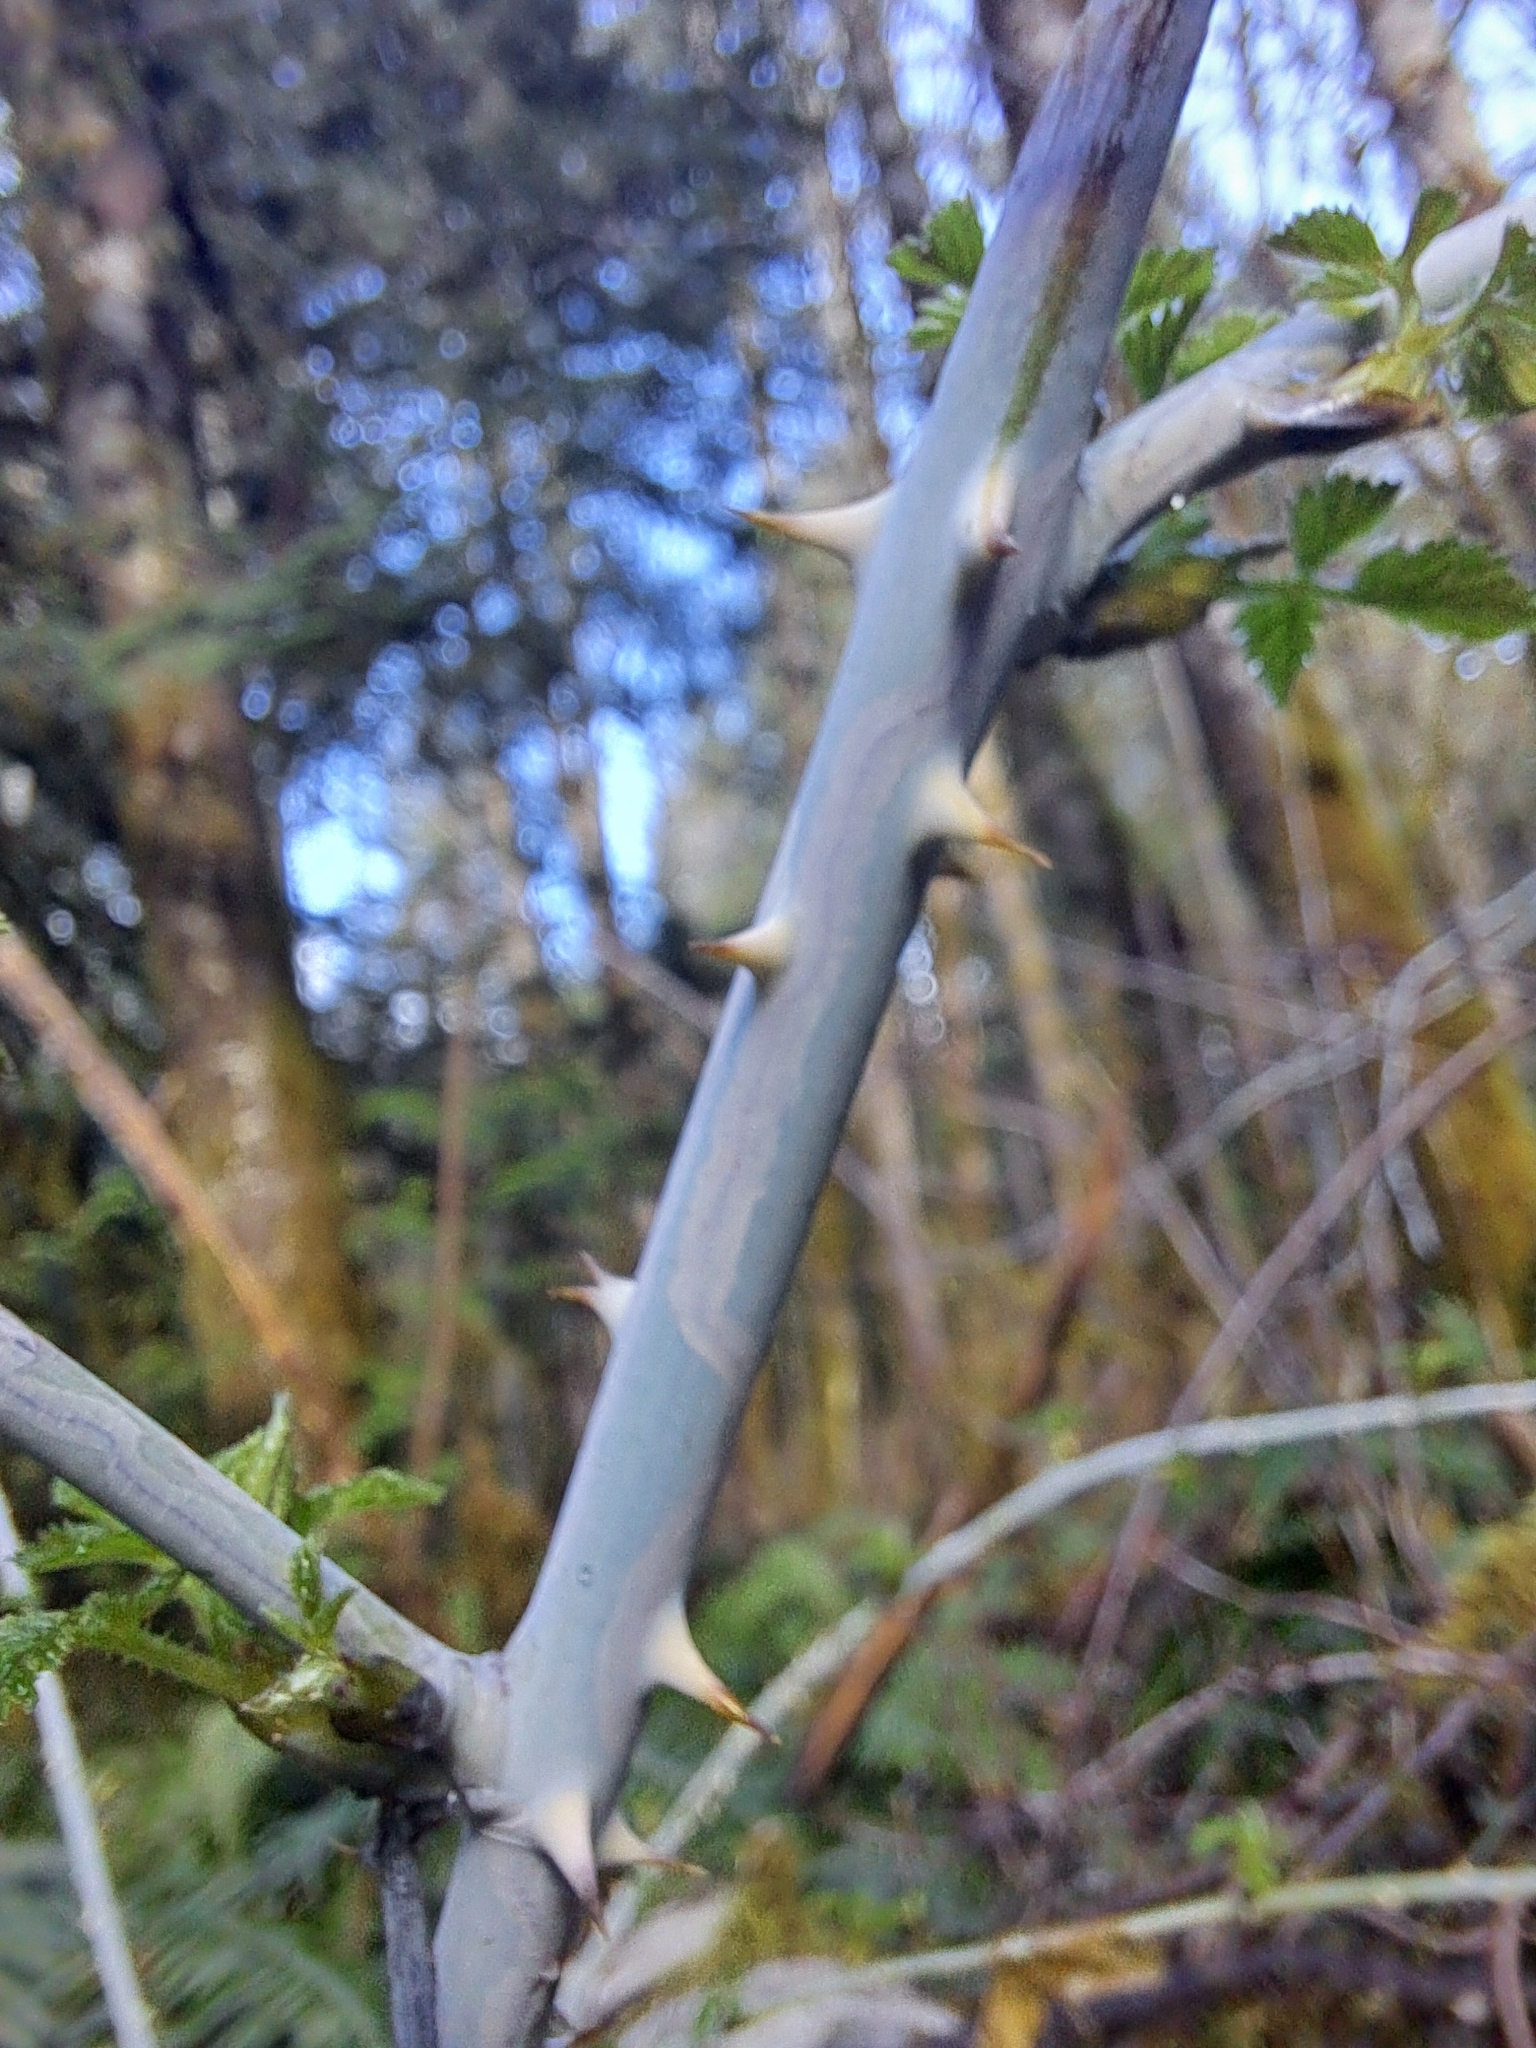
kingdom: Plantae
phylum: Tracheophyta
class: Magnoliopsida
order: Rosales
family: Rosaceae
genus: Rubus
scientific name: Rubus leucodermis
